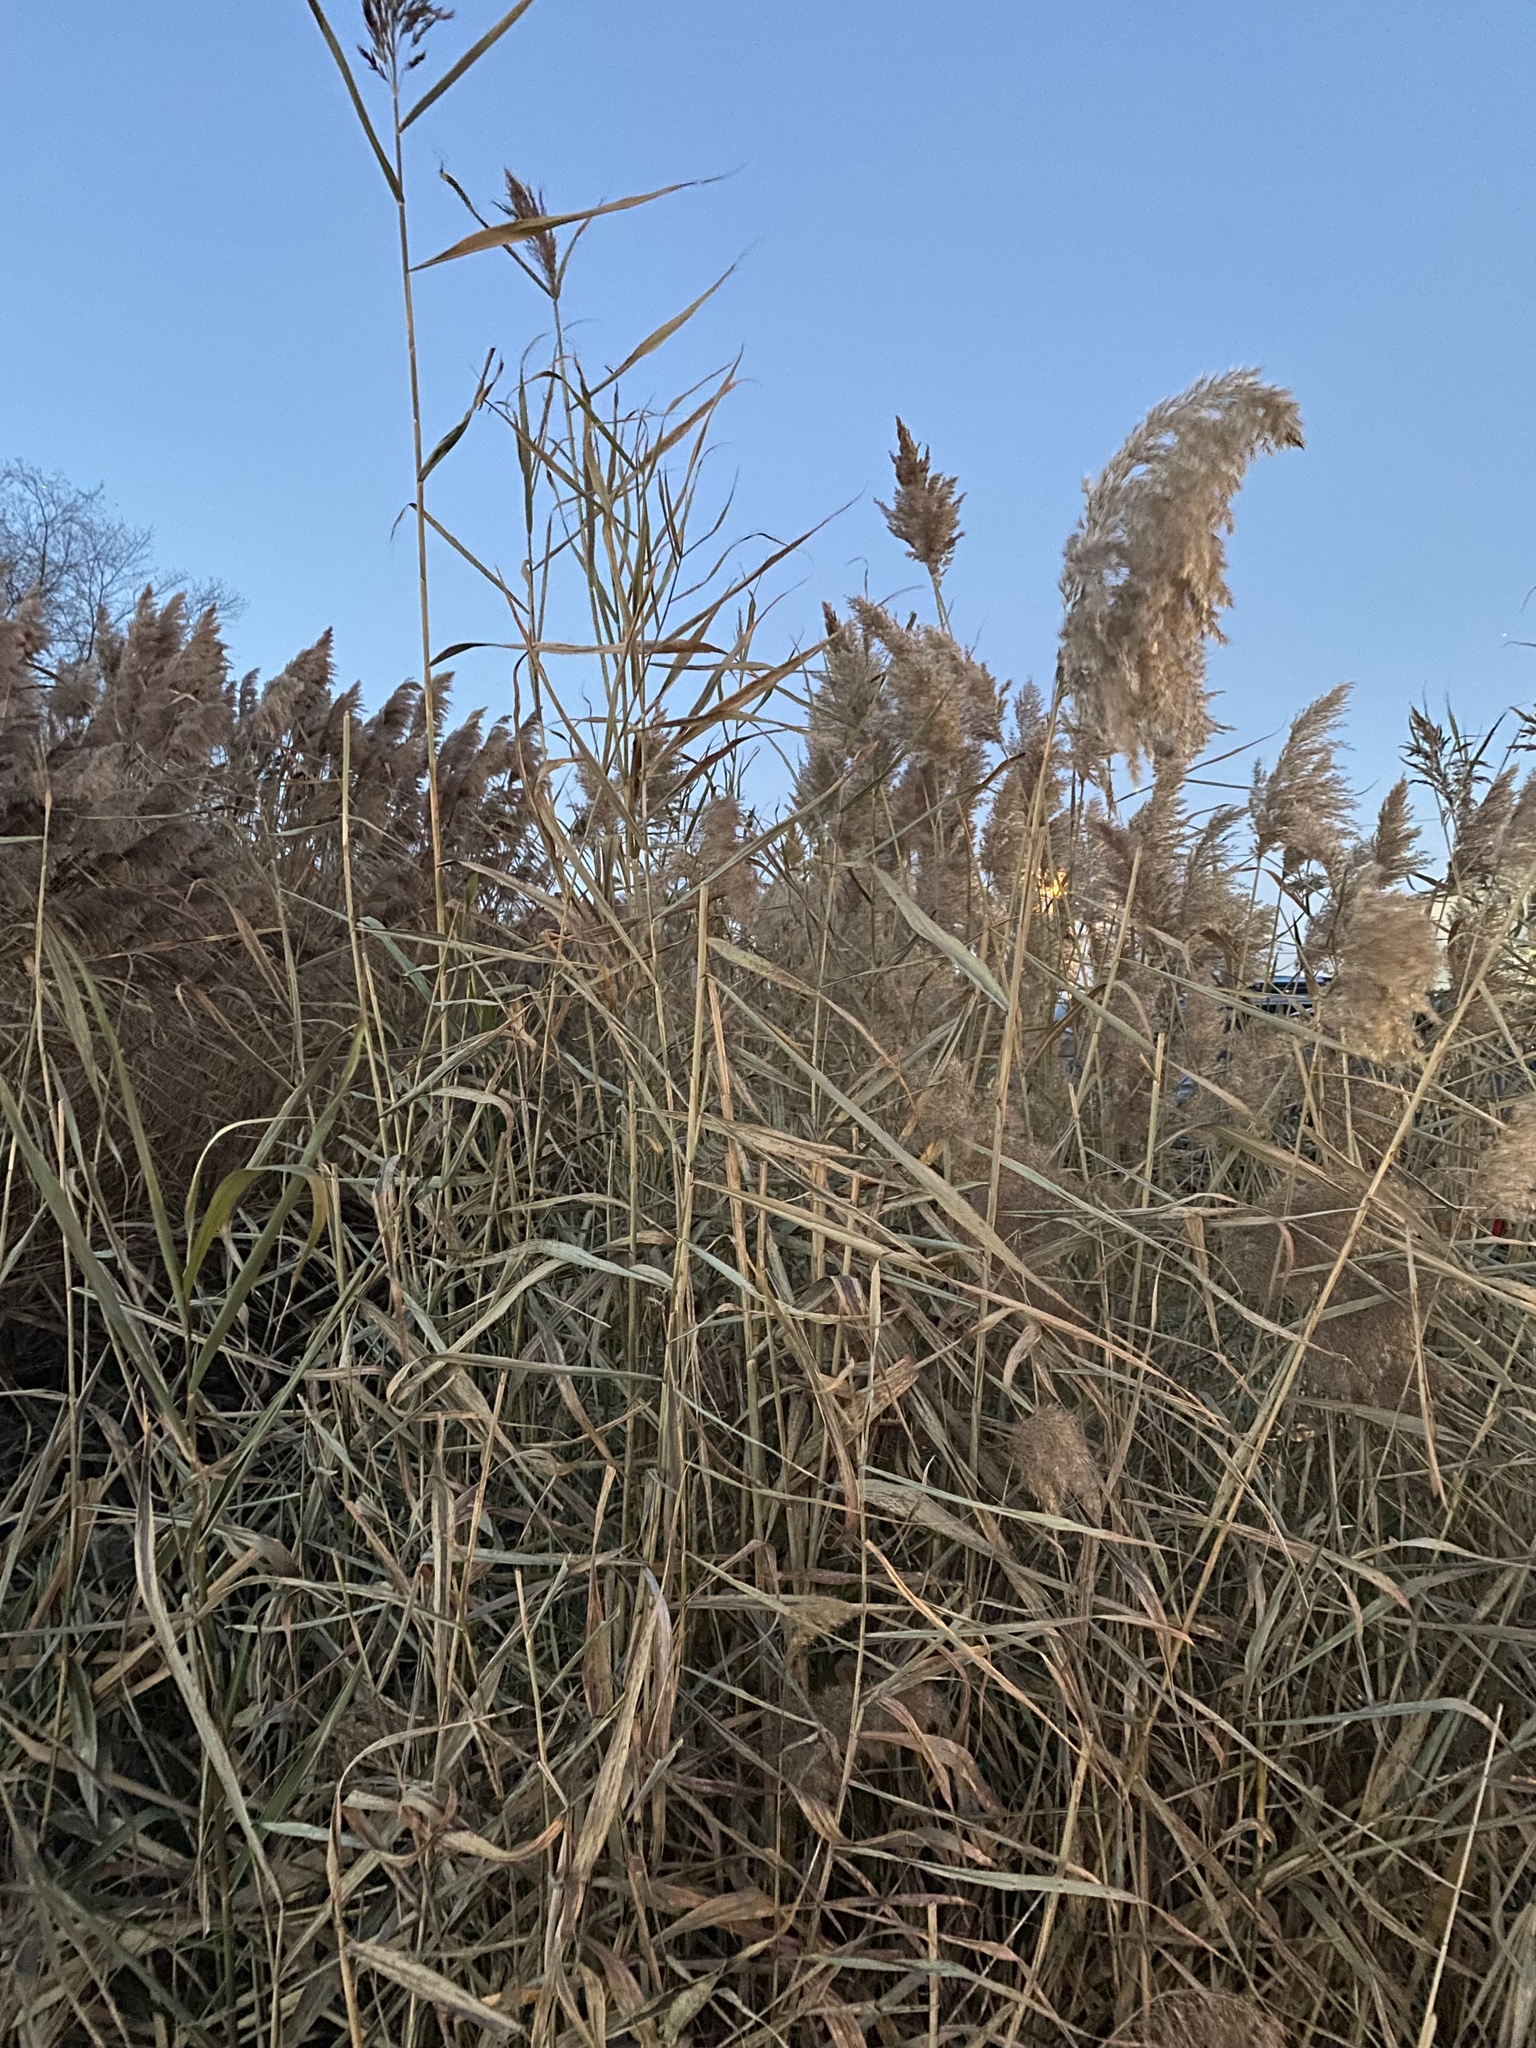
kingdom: Plantae
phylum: Tracheophyta
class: Liliopsida
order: Poales
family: Poaceae
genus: Phragmites
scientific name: Phragmites australis
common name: Common reed
